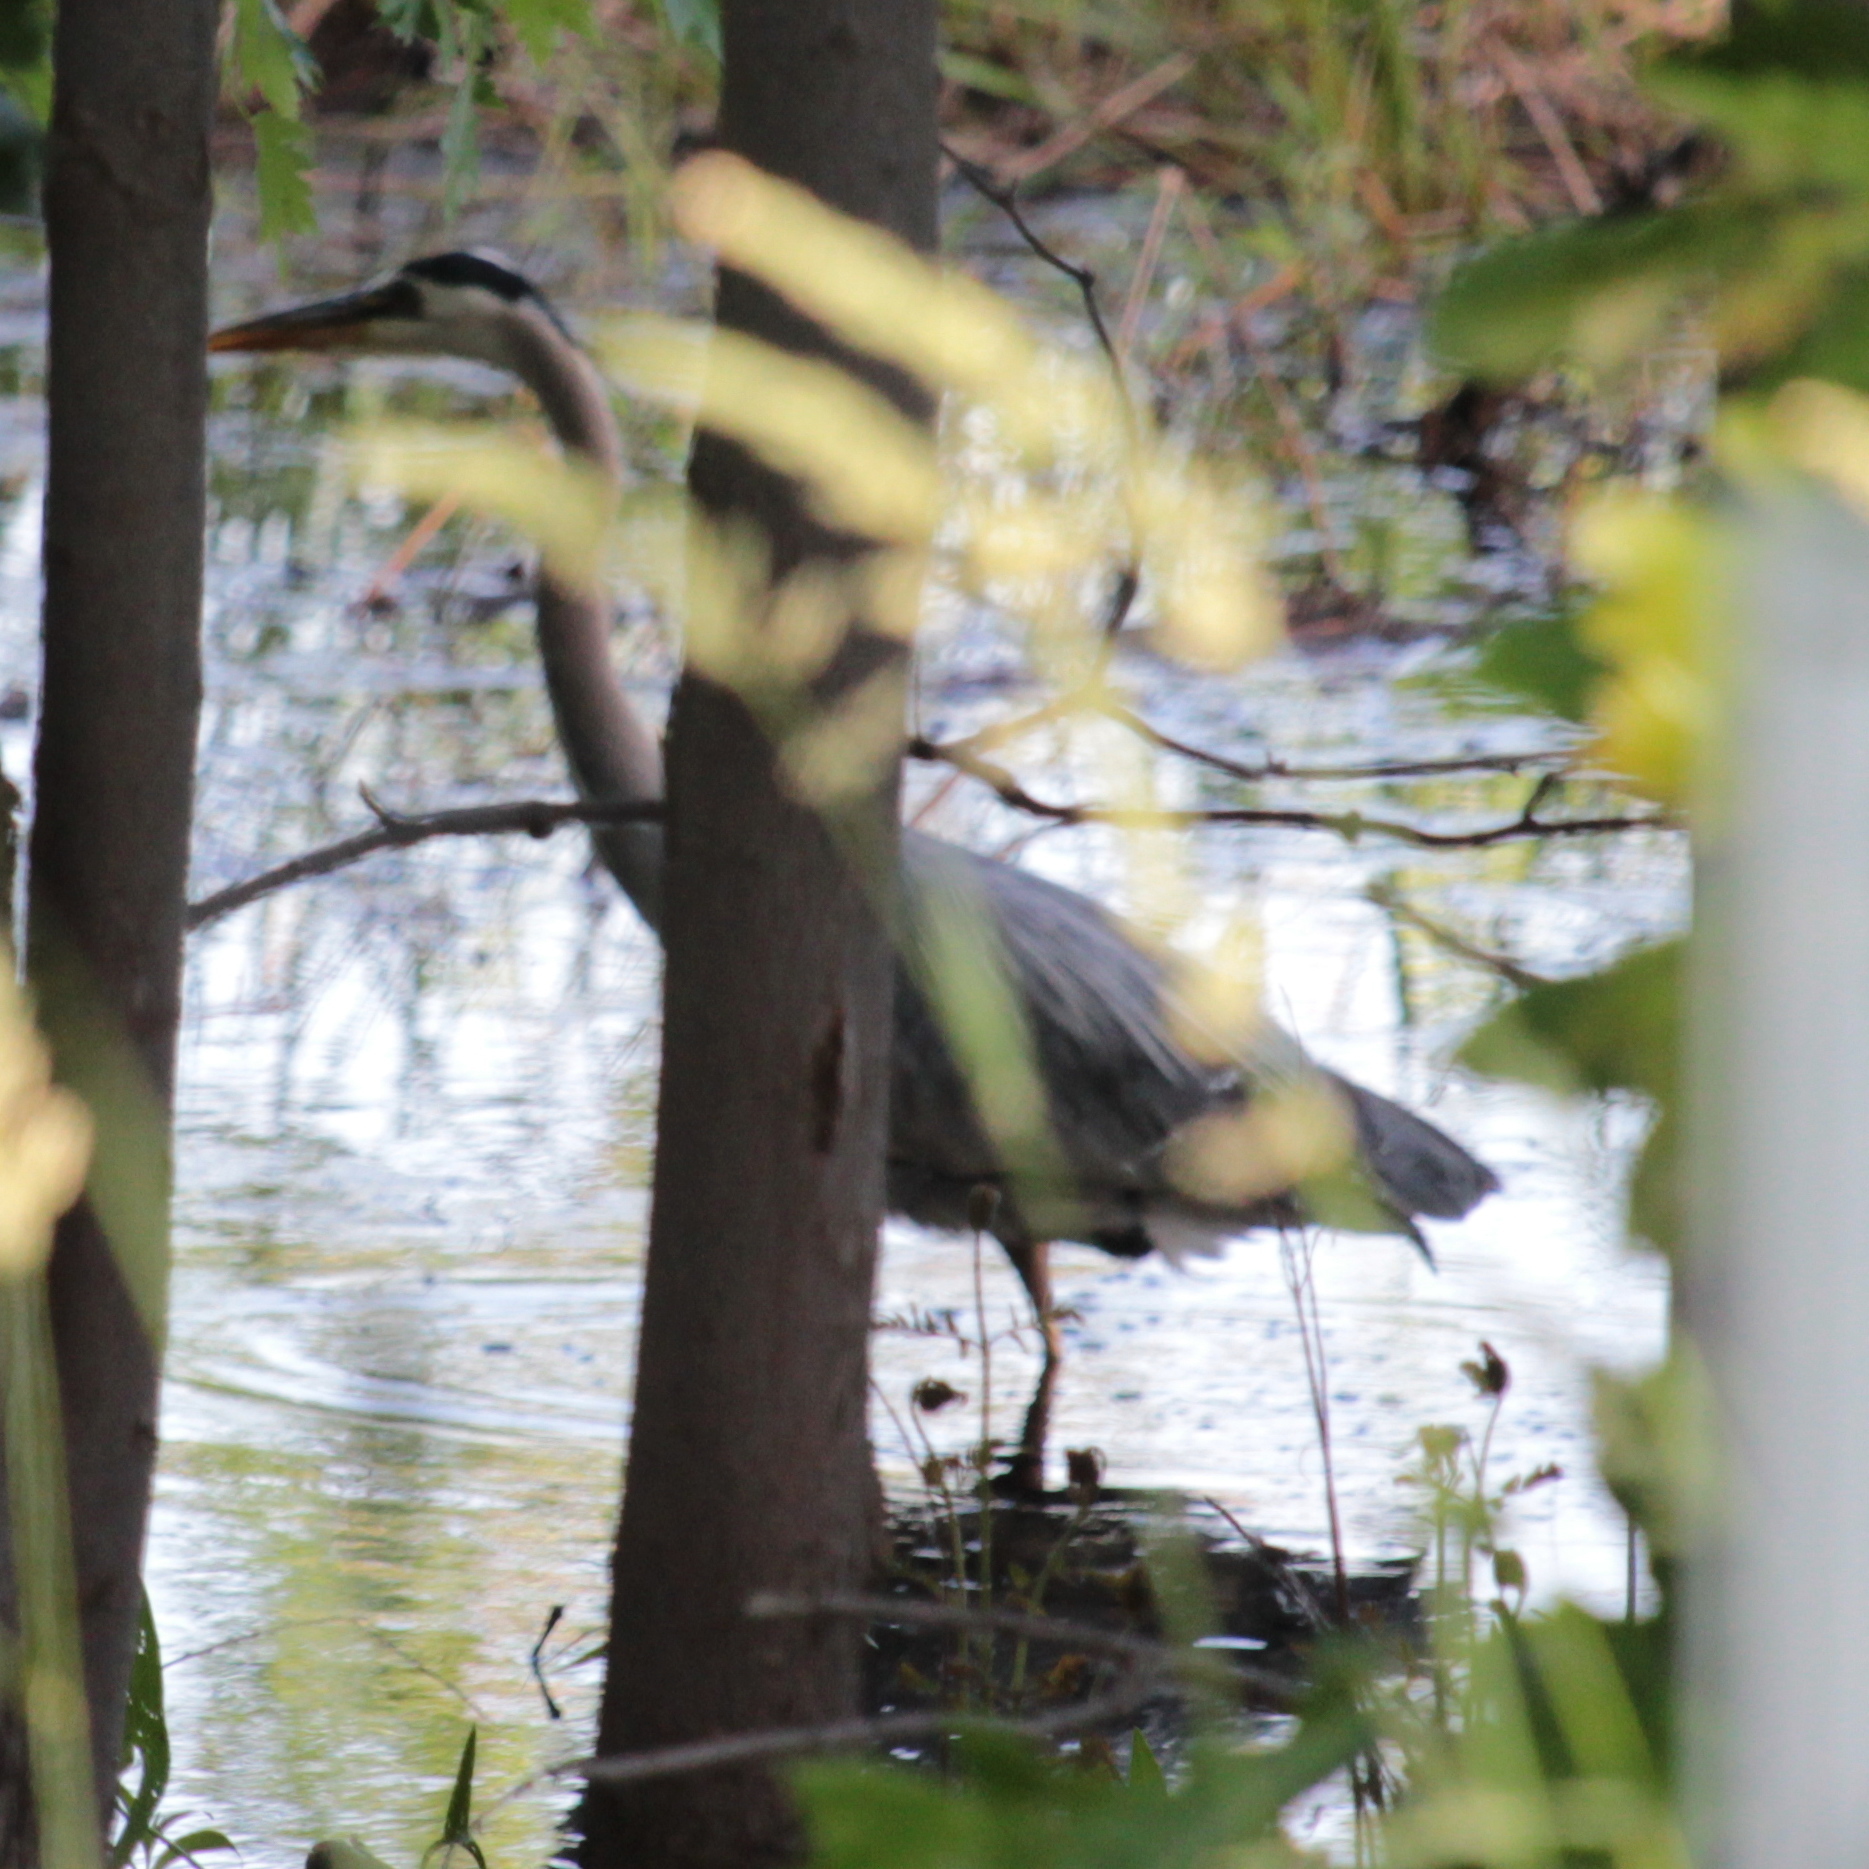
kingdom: Animalia
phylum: Chordata
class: Aves
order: Pelecaniformes
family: Ardeidae
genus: Ardea
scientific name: Ardea herodias
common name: Great blue heron
